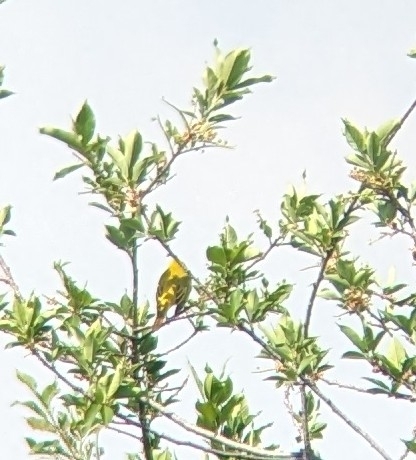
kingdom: Animalia
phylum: Chordata
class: Aves
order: Passeriformes
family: Parulidae
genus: Setophaga
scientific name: Setophaga petechia
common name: Yellow warbler
